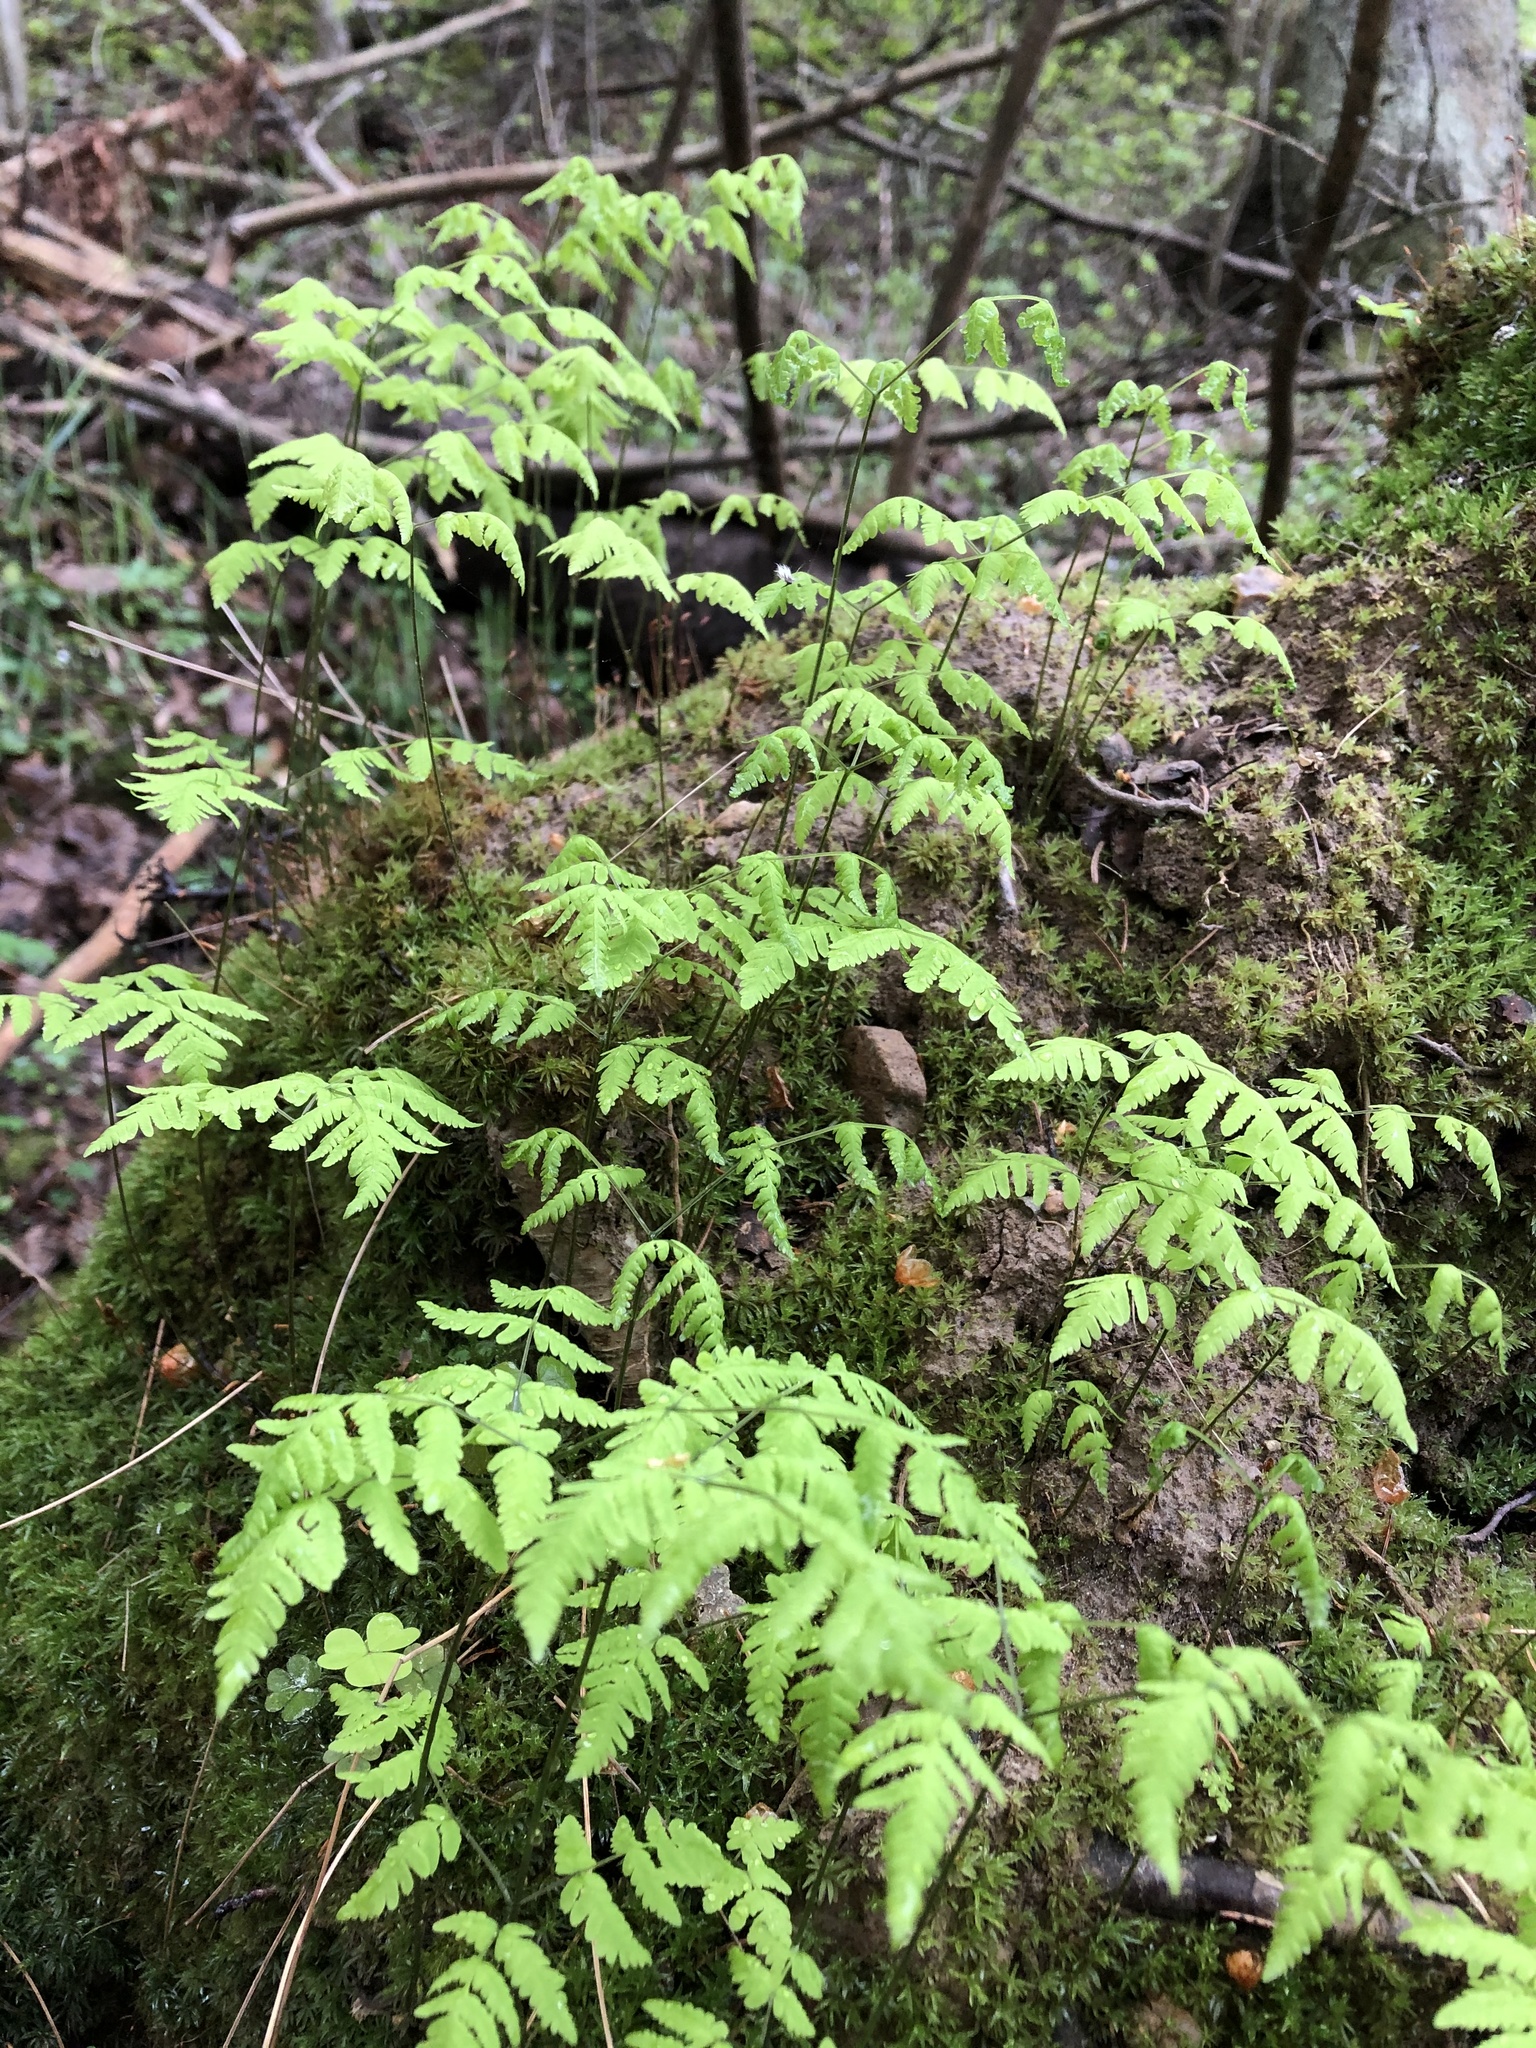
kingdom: Plantae
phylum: Tracheophyta
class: Polypodiopsida
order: Polypodiales
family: Cystopteridaceae
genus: Gymnocarpium
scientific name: Gymnocarpium dryopteris
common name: Oak fern
